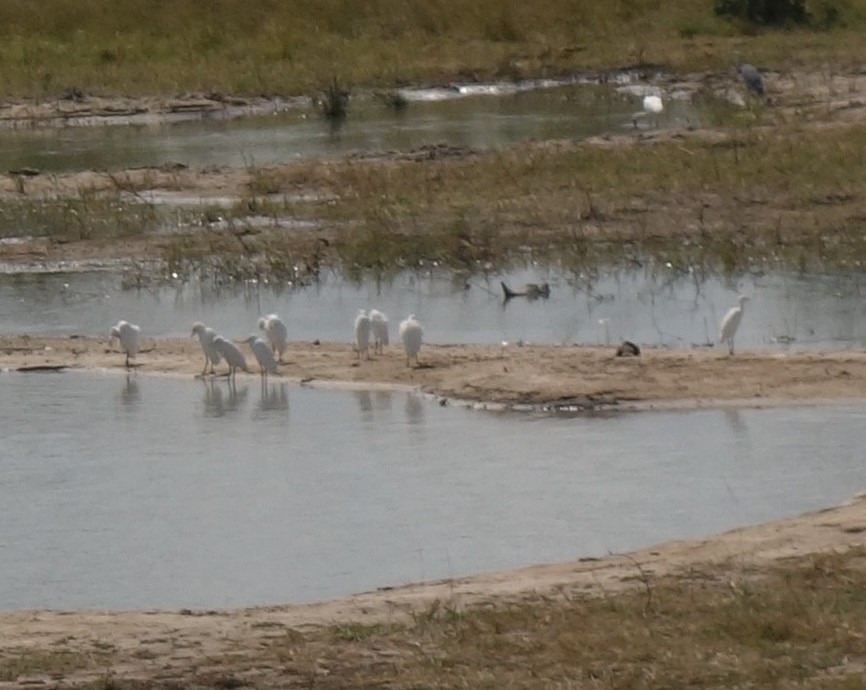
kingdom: Animalia
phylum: Chordata
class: Aves
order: Pelecaniformes
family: Ardeidae
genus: Bubulcus
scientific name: Bubulcus ibis
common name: Cattle egret
